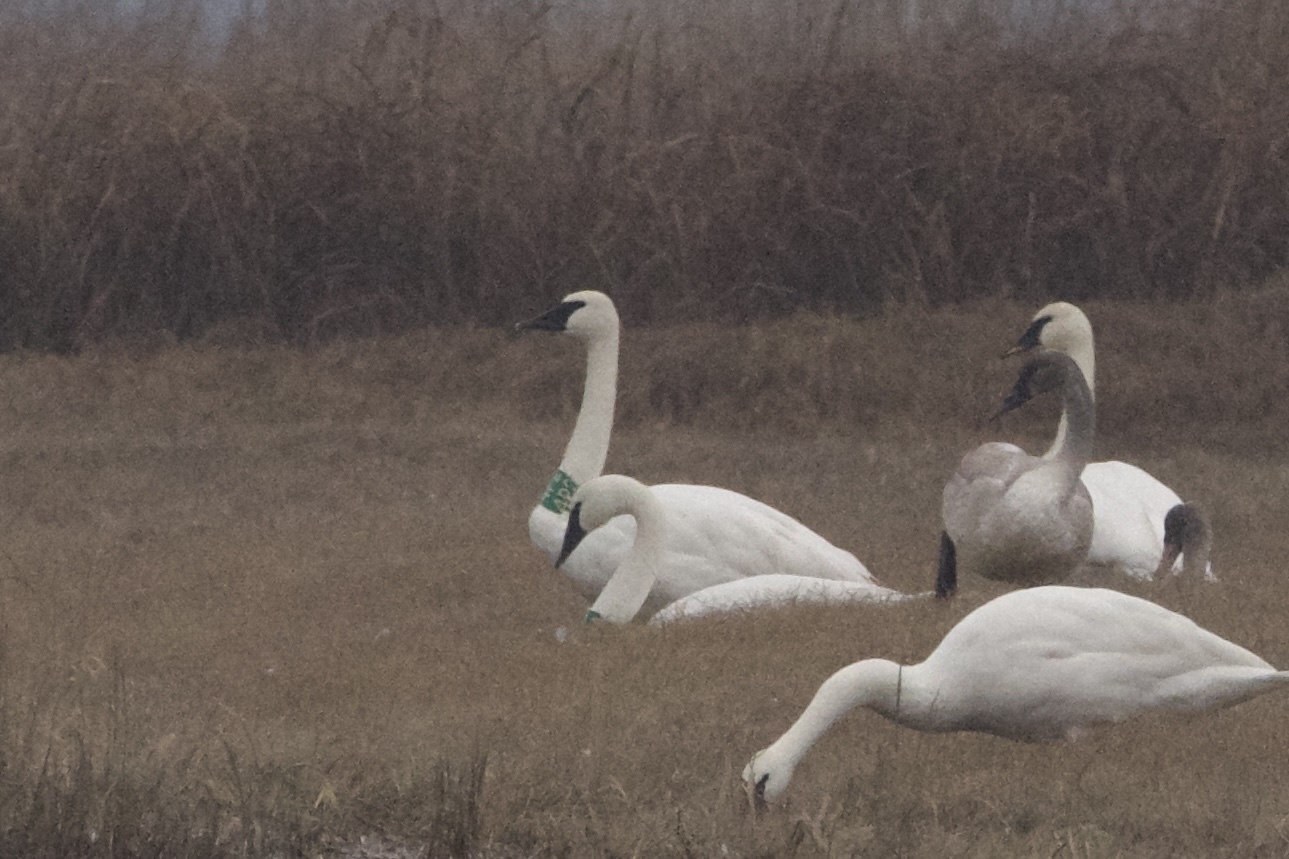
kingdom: Animalia
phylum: Chordata
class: Aves
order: Anseriformes
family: Anatidae
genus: Cygnus
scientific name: Cygnus buccinator
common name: Trumpeter swan
